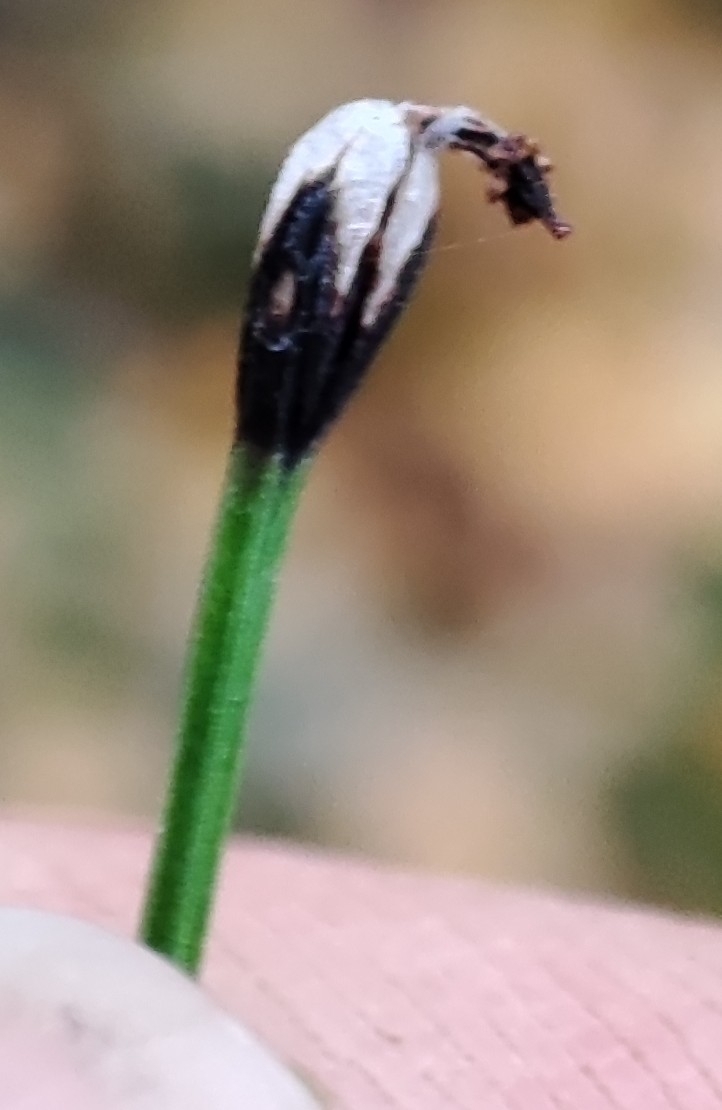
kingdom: Plantae
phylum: Tracheophyta
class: Polypodiopsida
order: Equisetales
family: Equisetaceae
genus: Equisetum
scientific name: Equisetum scirpoides
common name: Delicate horsetail
